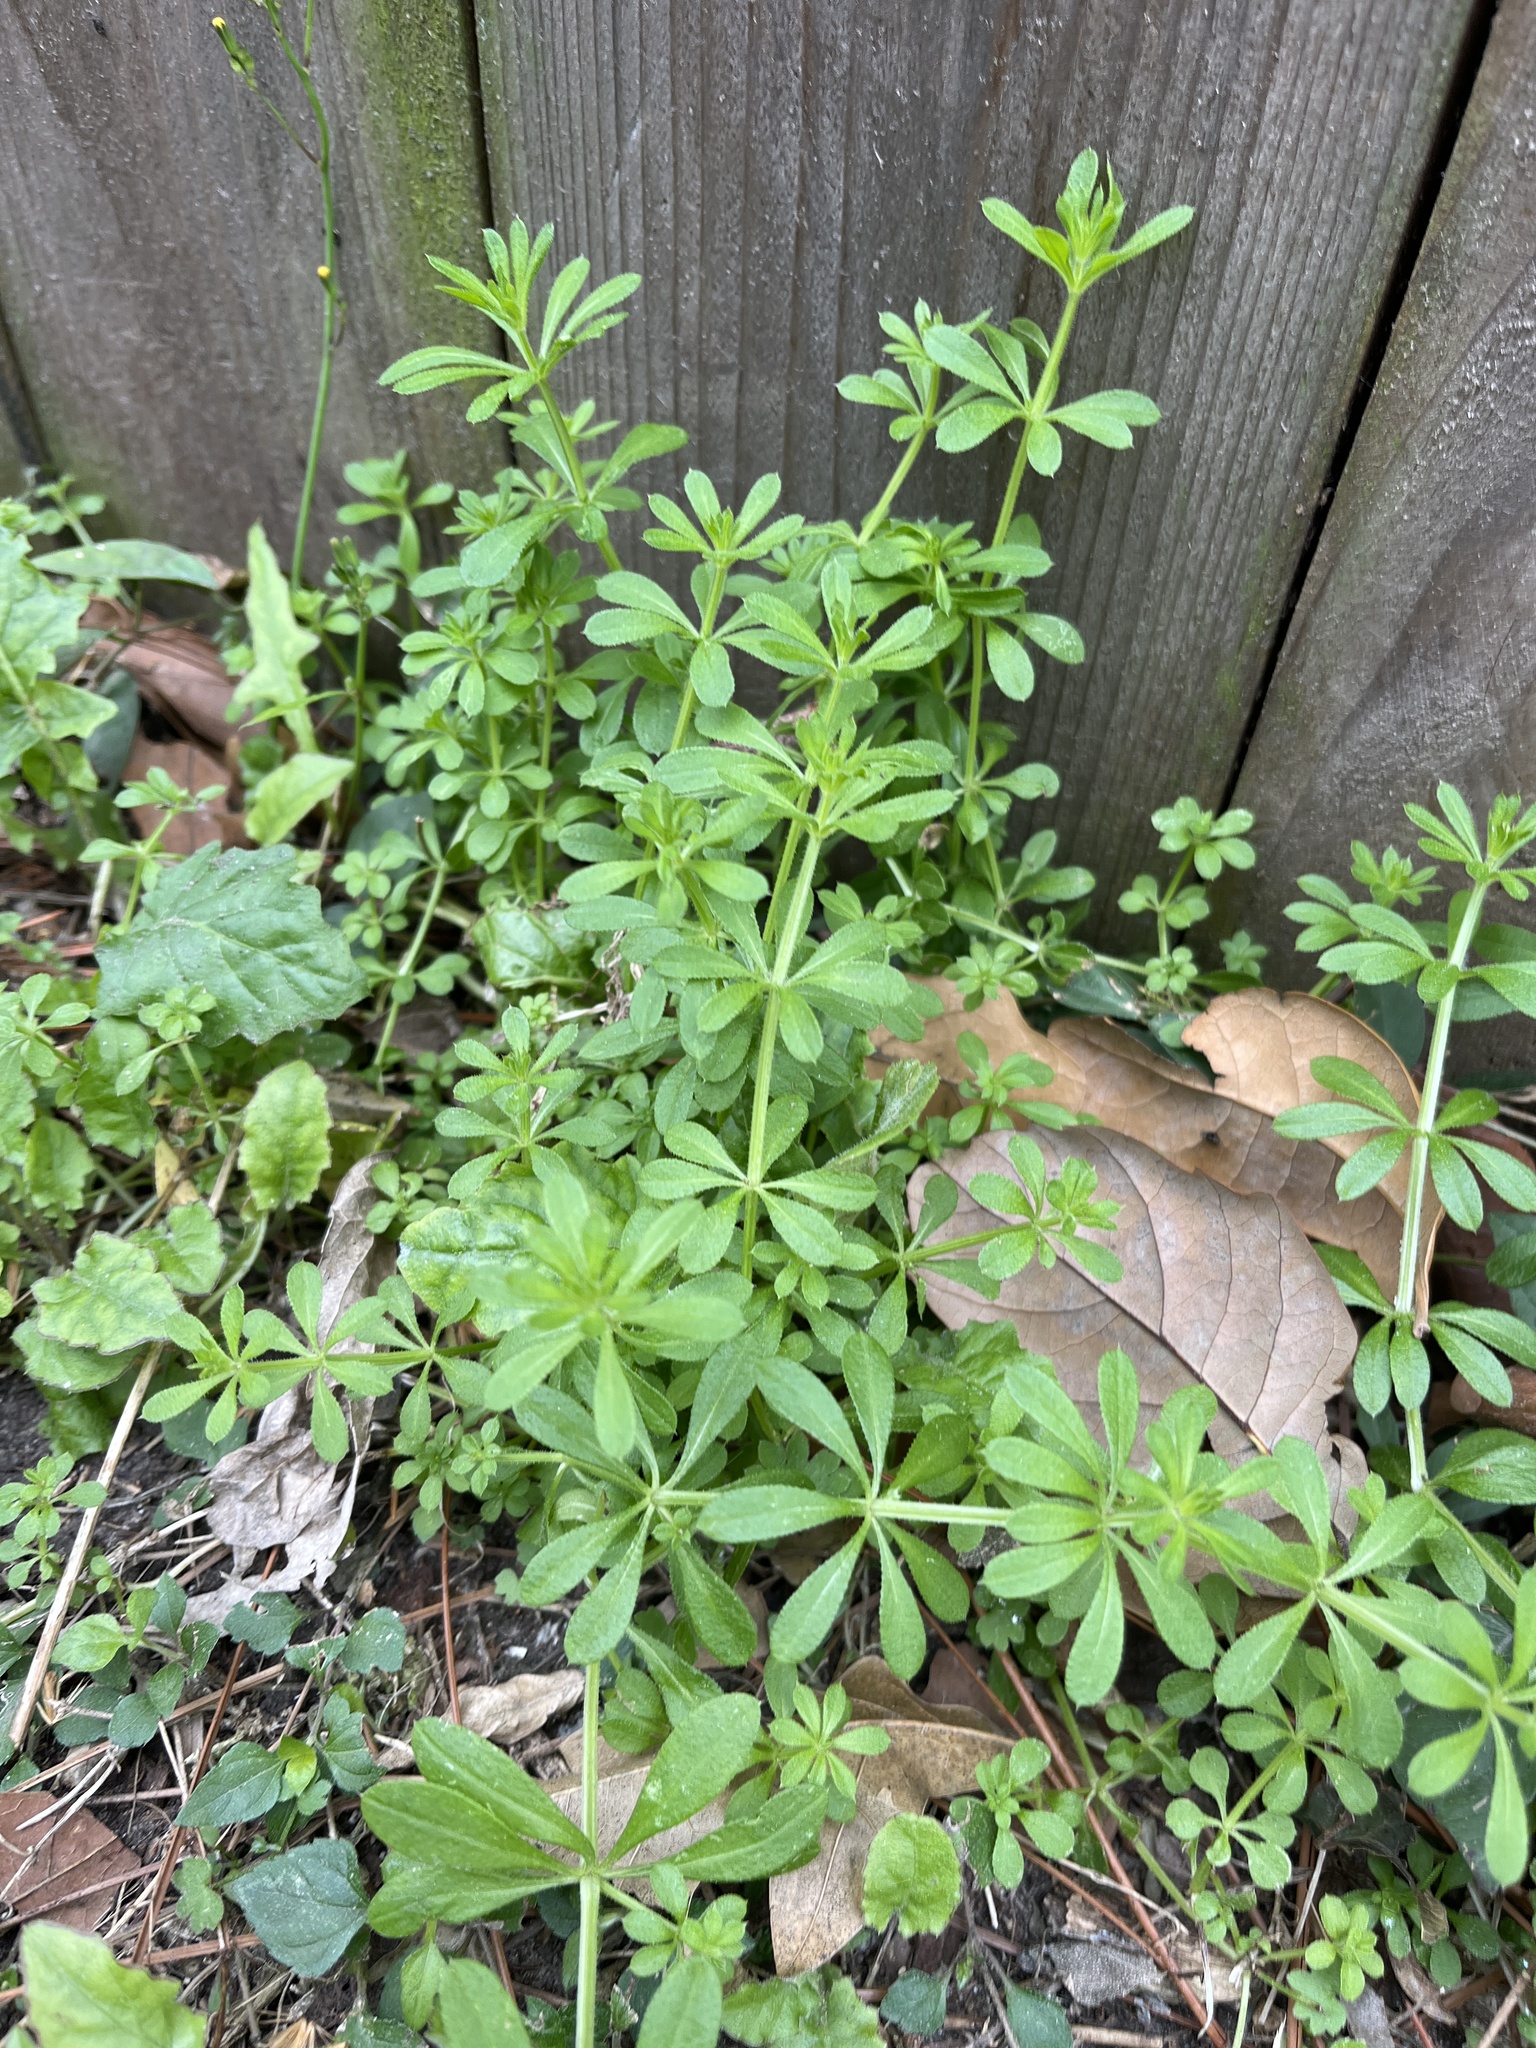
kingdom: Plantae
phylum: Tracheophyta
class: Magnoliopsida
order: Gentianales
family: Rubiaceae
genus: Galium
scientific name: Galium aparine
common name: Cleavers
